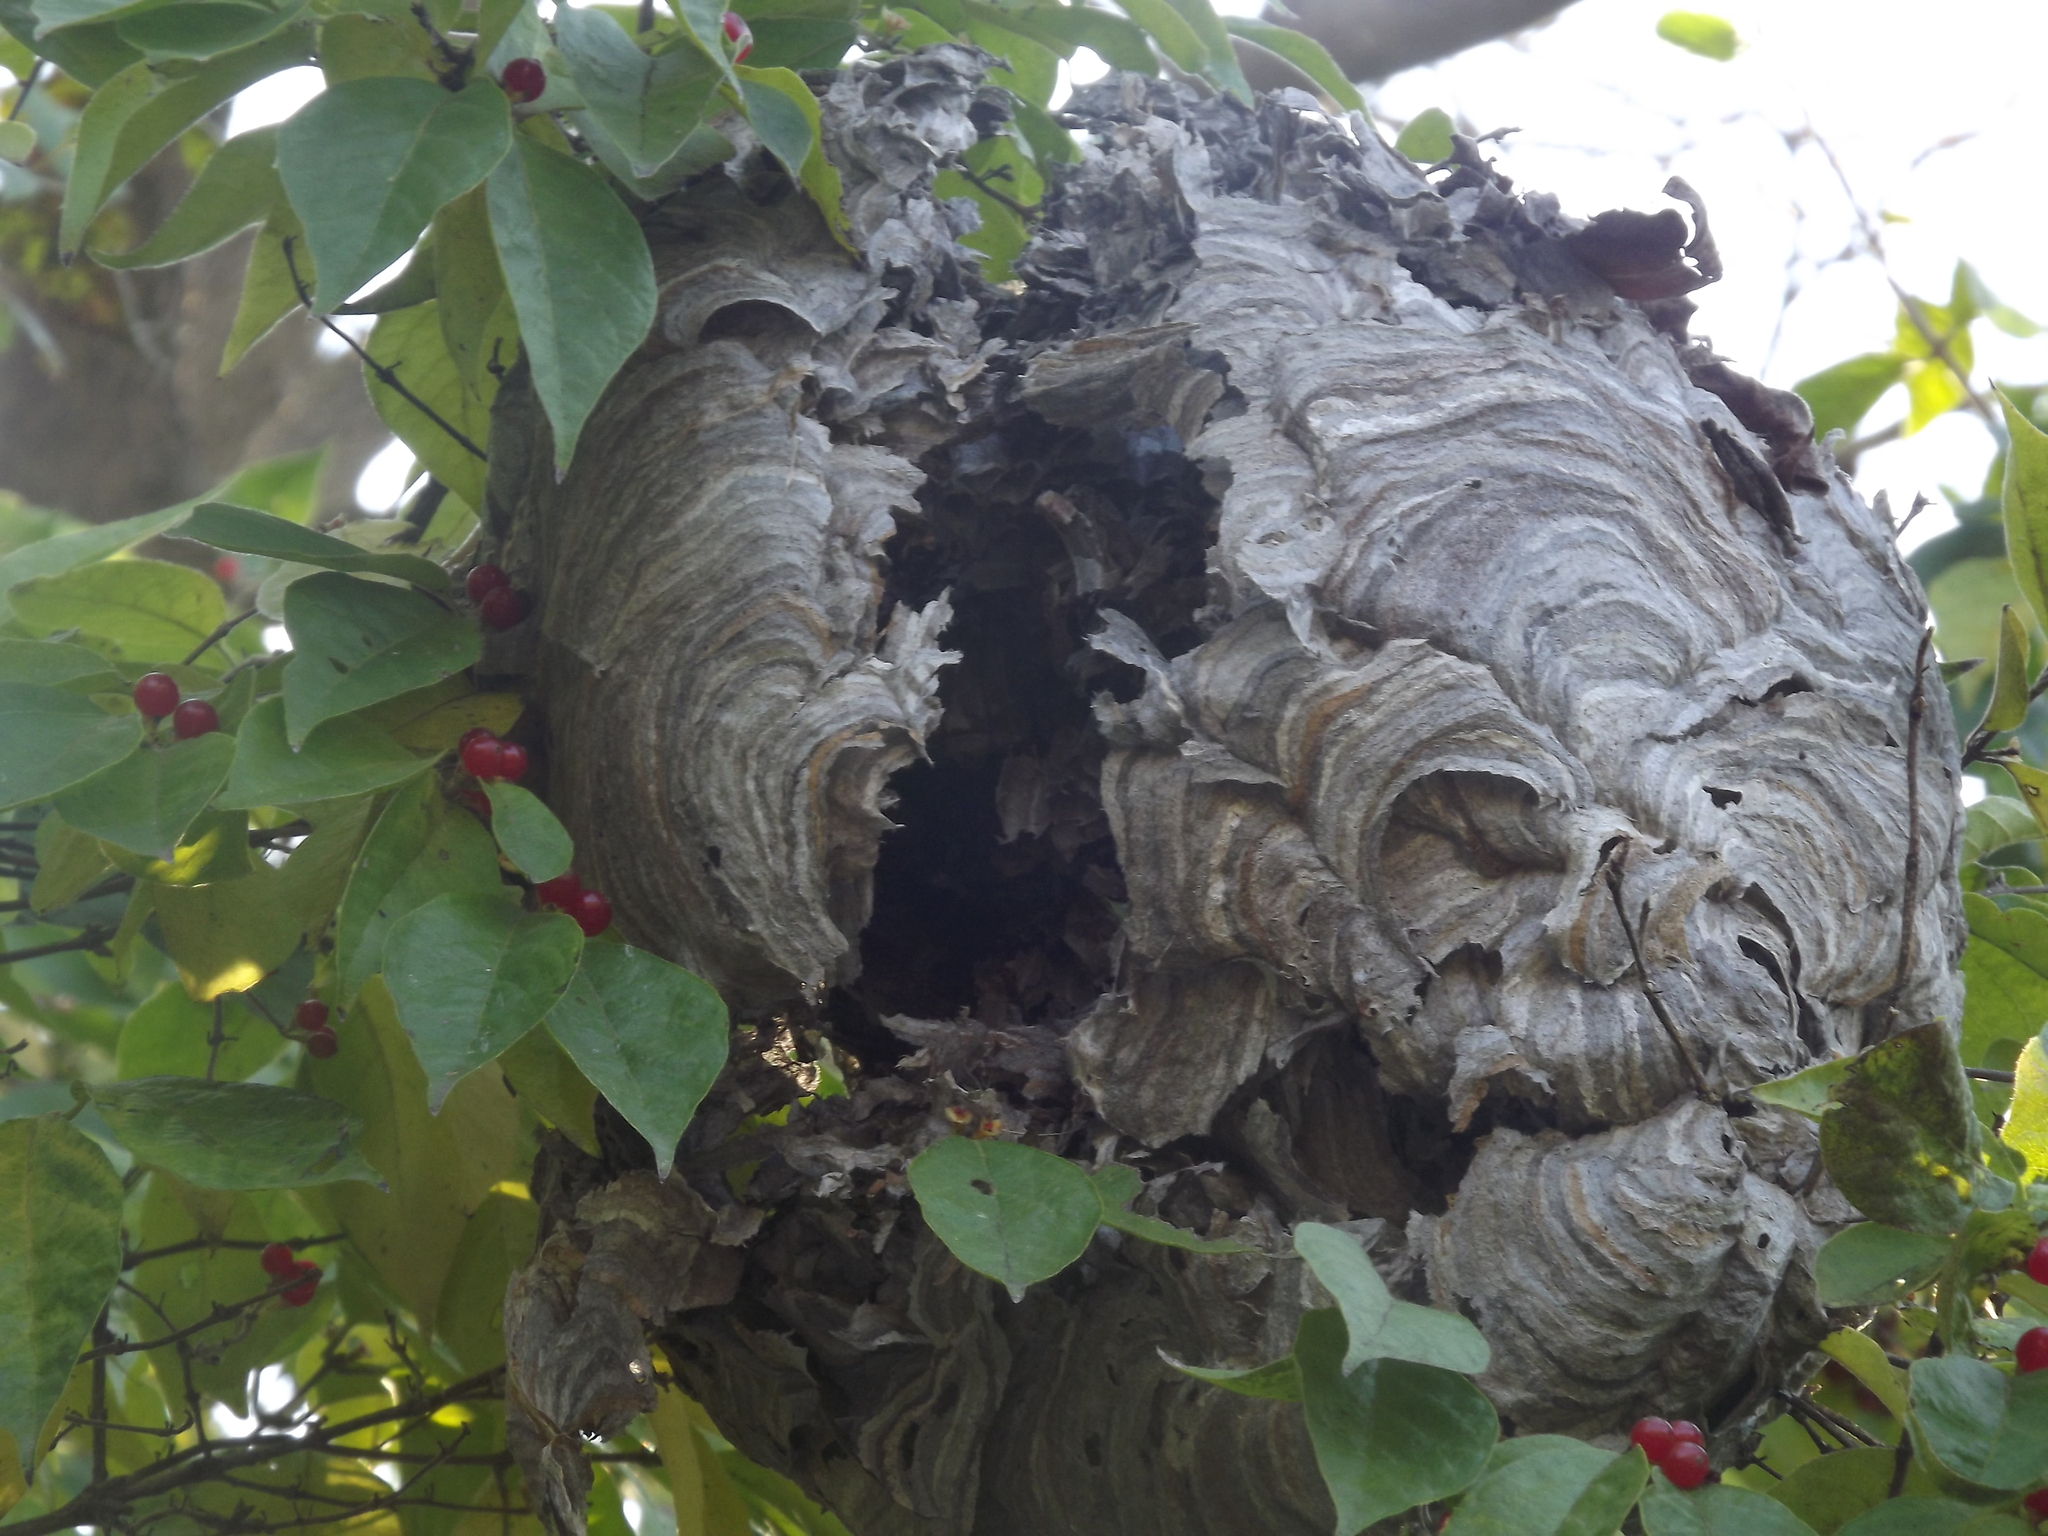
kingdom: Animalia
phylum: Arthropoda
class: Insecta
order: Hymenoptera
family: Vespidae
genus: Dolichovespula
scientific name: Dolichovespula maculata
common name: Bald-faced hornet
